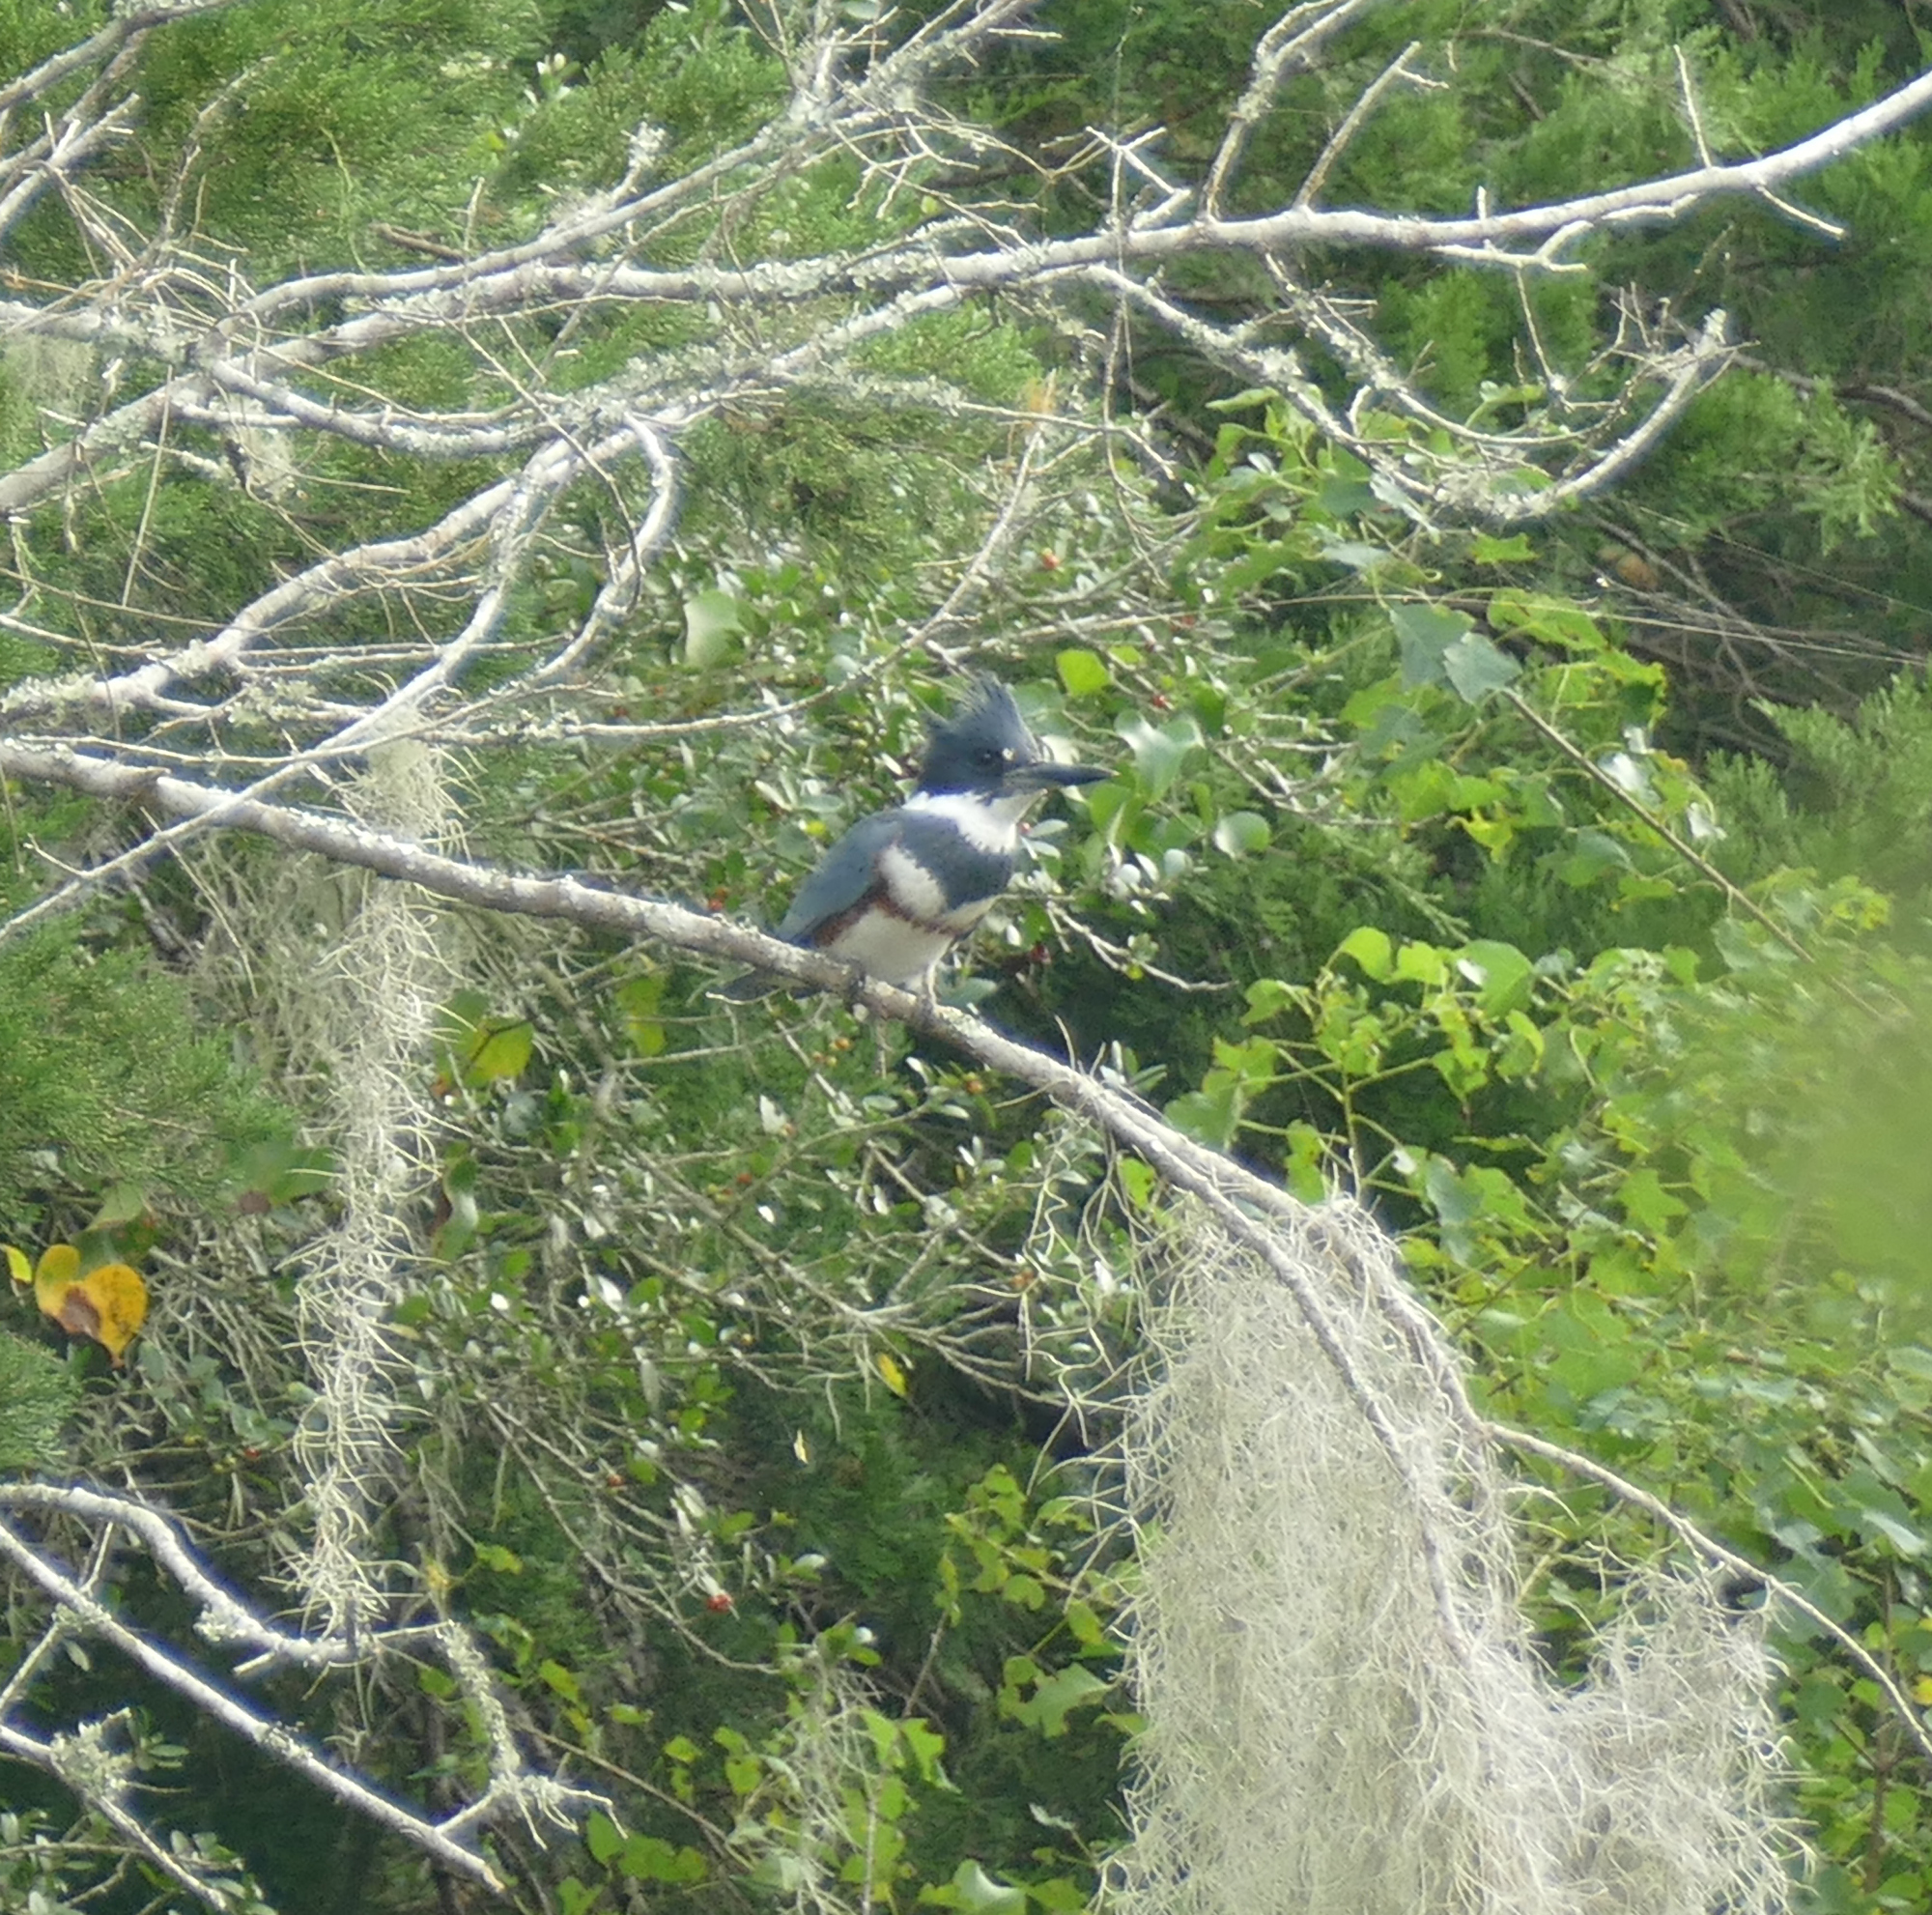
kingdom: Animalia
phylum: Chordata
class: Aves
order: Coraciiformes
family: Alcedinidae
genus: Megaceryle
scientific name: Megaceryle alcyon
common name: Belted kingfisher
